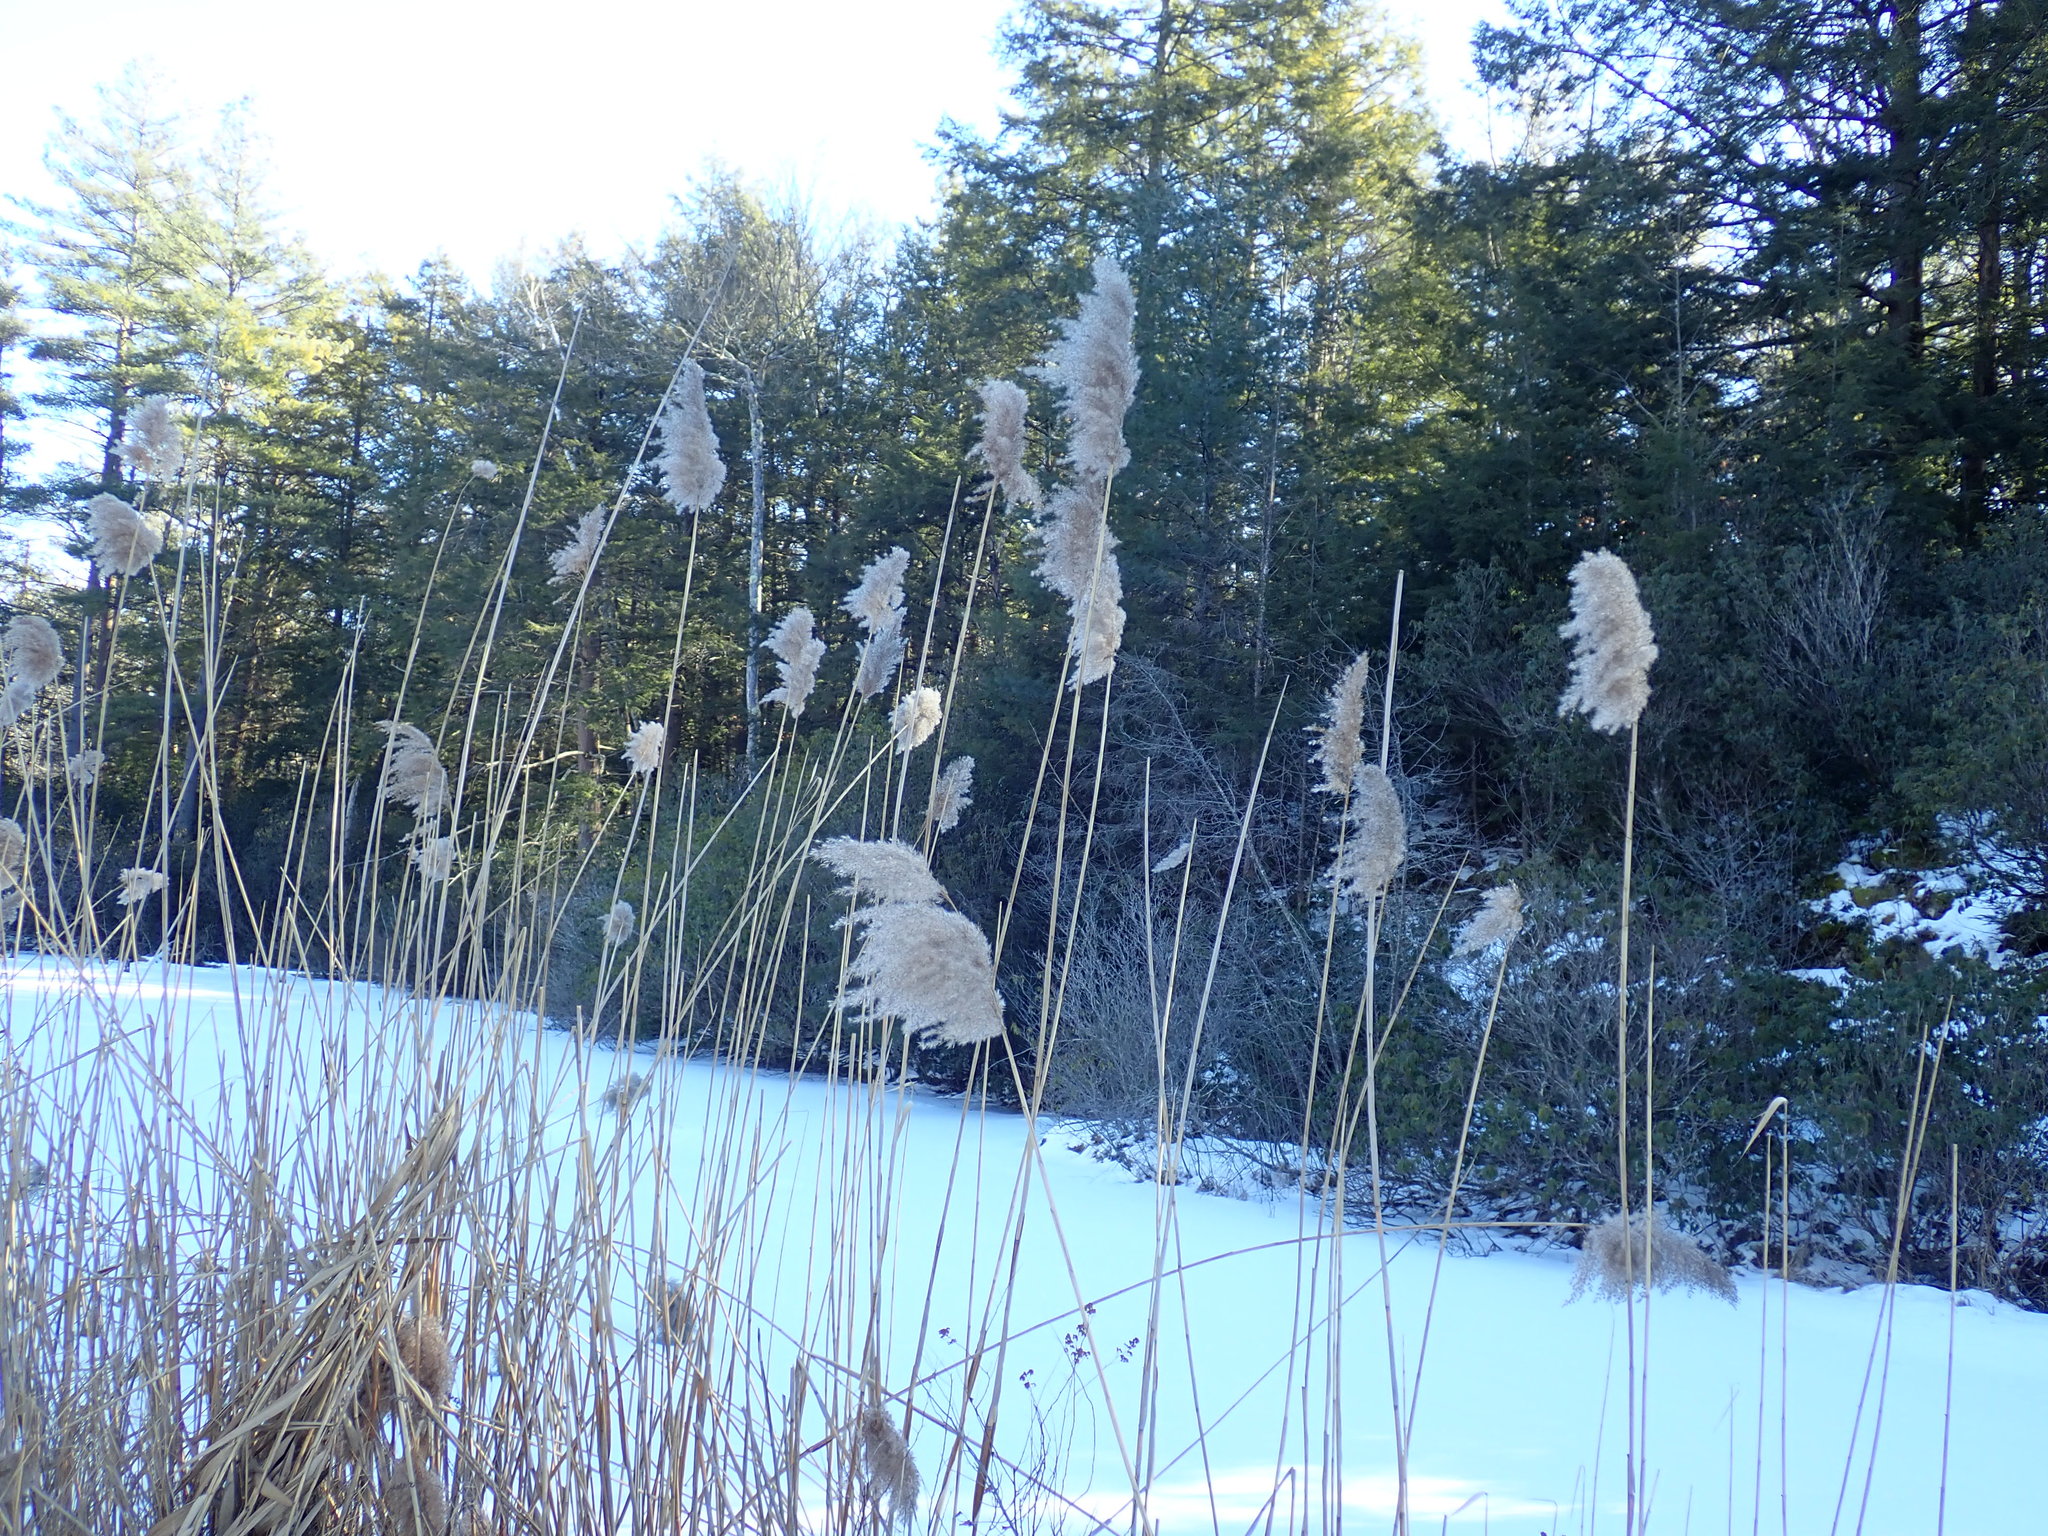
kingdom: Plantae
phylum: Tracheophyta
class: Liliopsida
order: Poales
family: Poaceae
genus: Phragmites
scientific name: Phragmites australis
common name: Common reed
